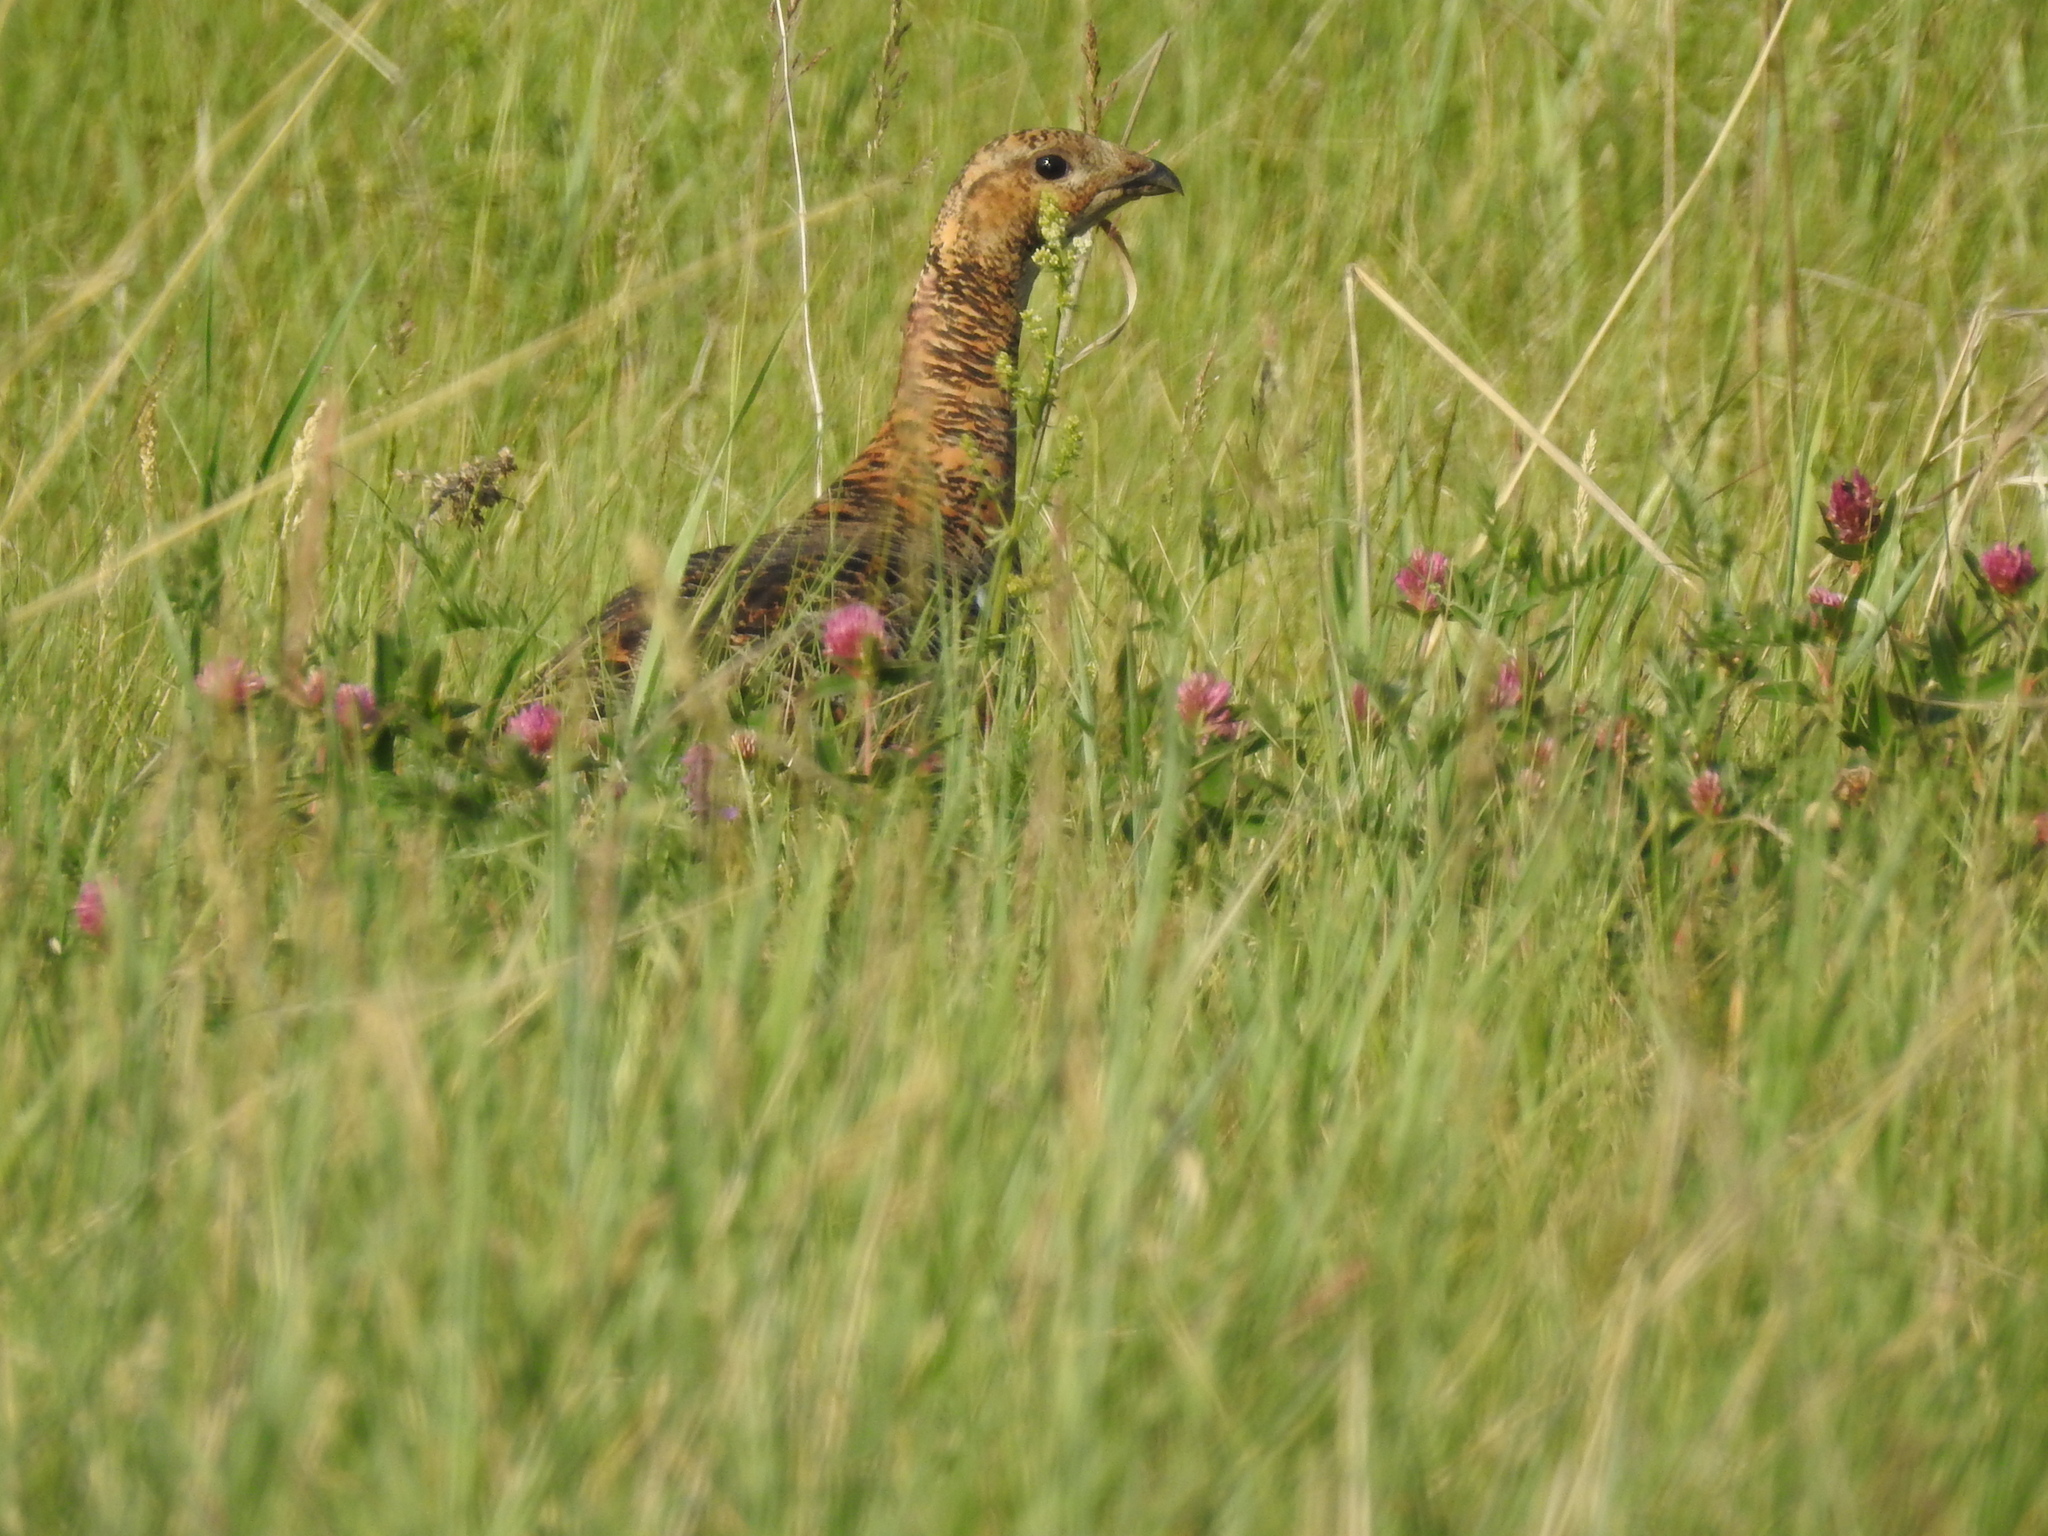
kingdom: Animalia
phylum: Chordata
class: Aves
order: Galliformes
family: Phasianidae
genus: Lyrurus
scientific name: Lyrurus tetrix
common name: Black grouse
